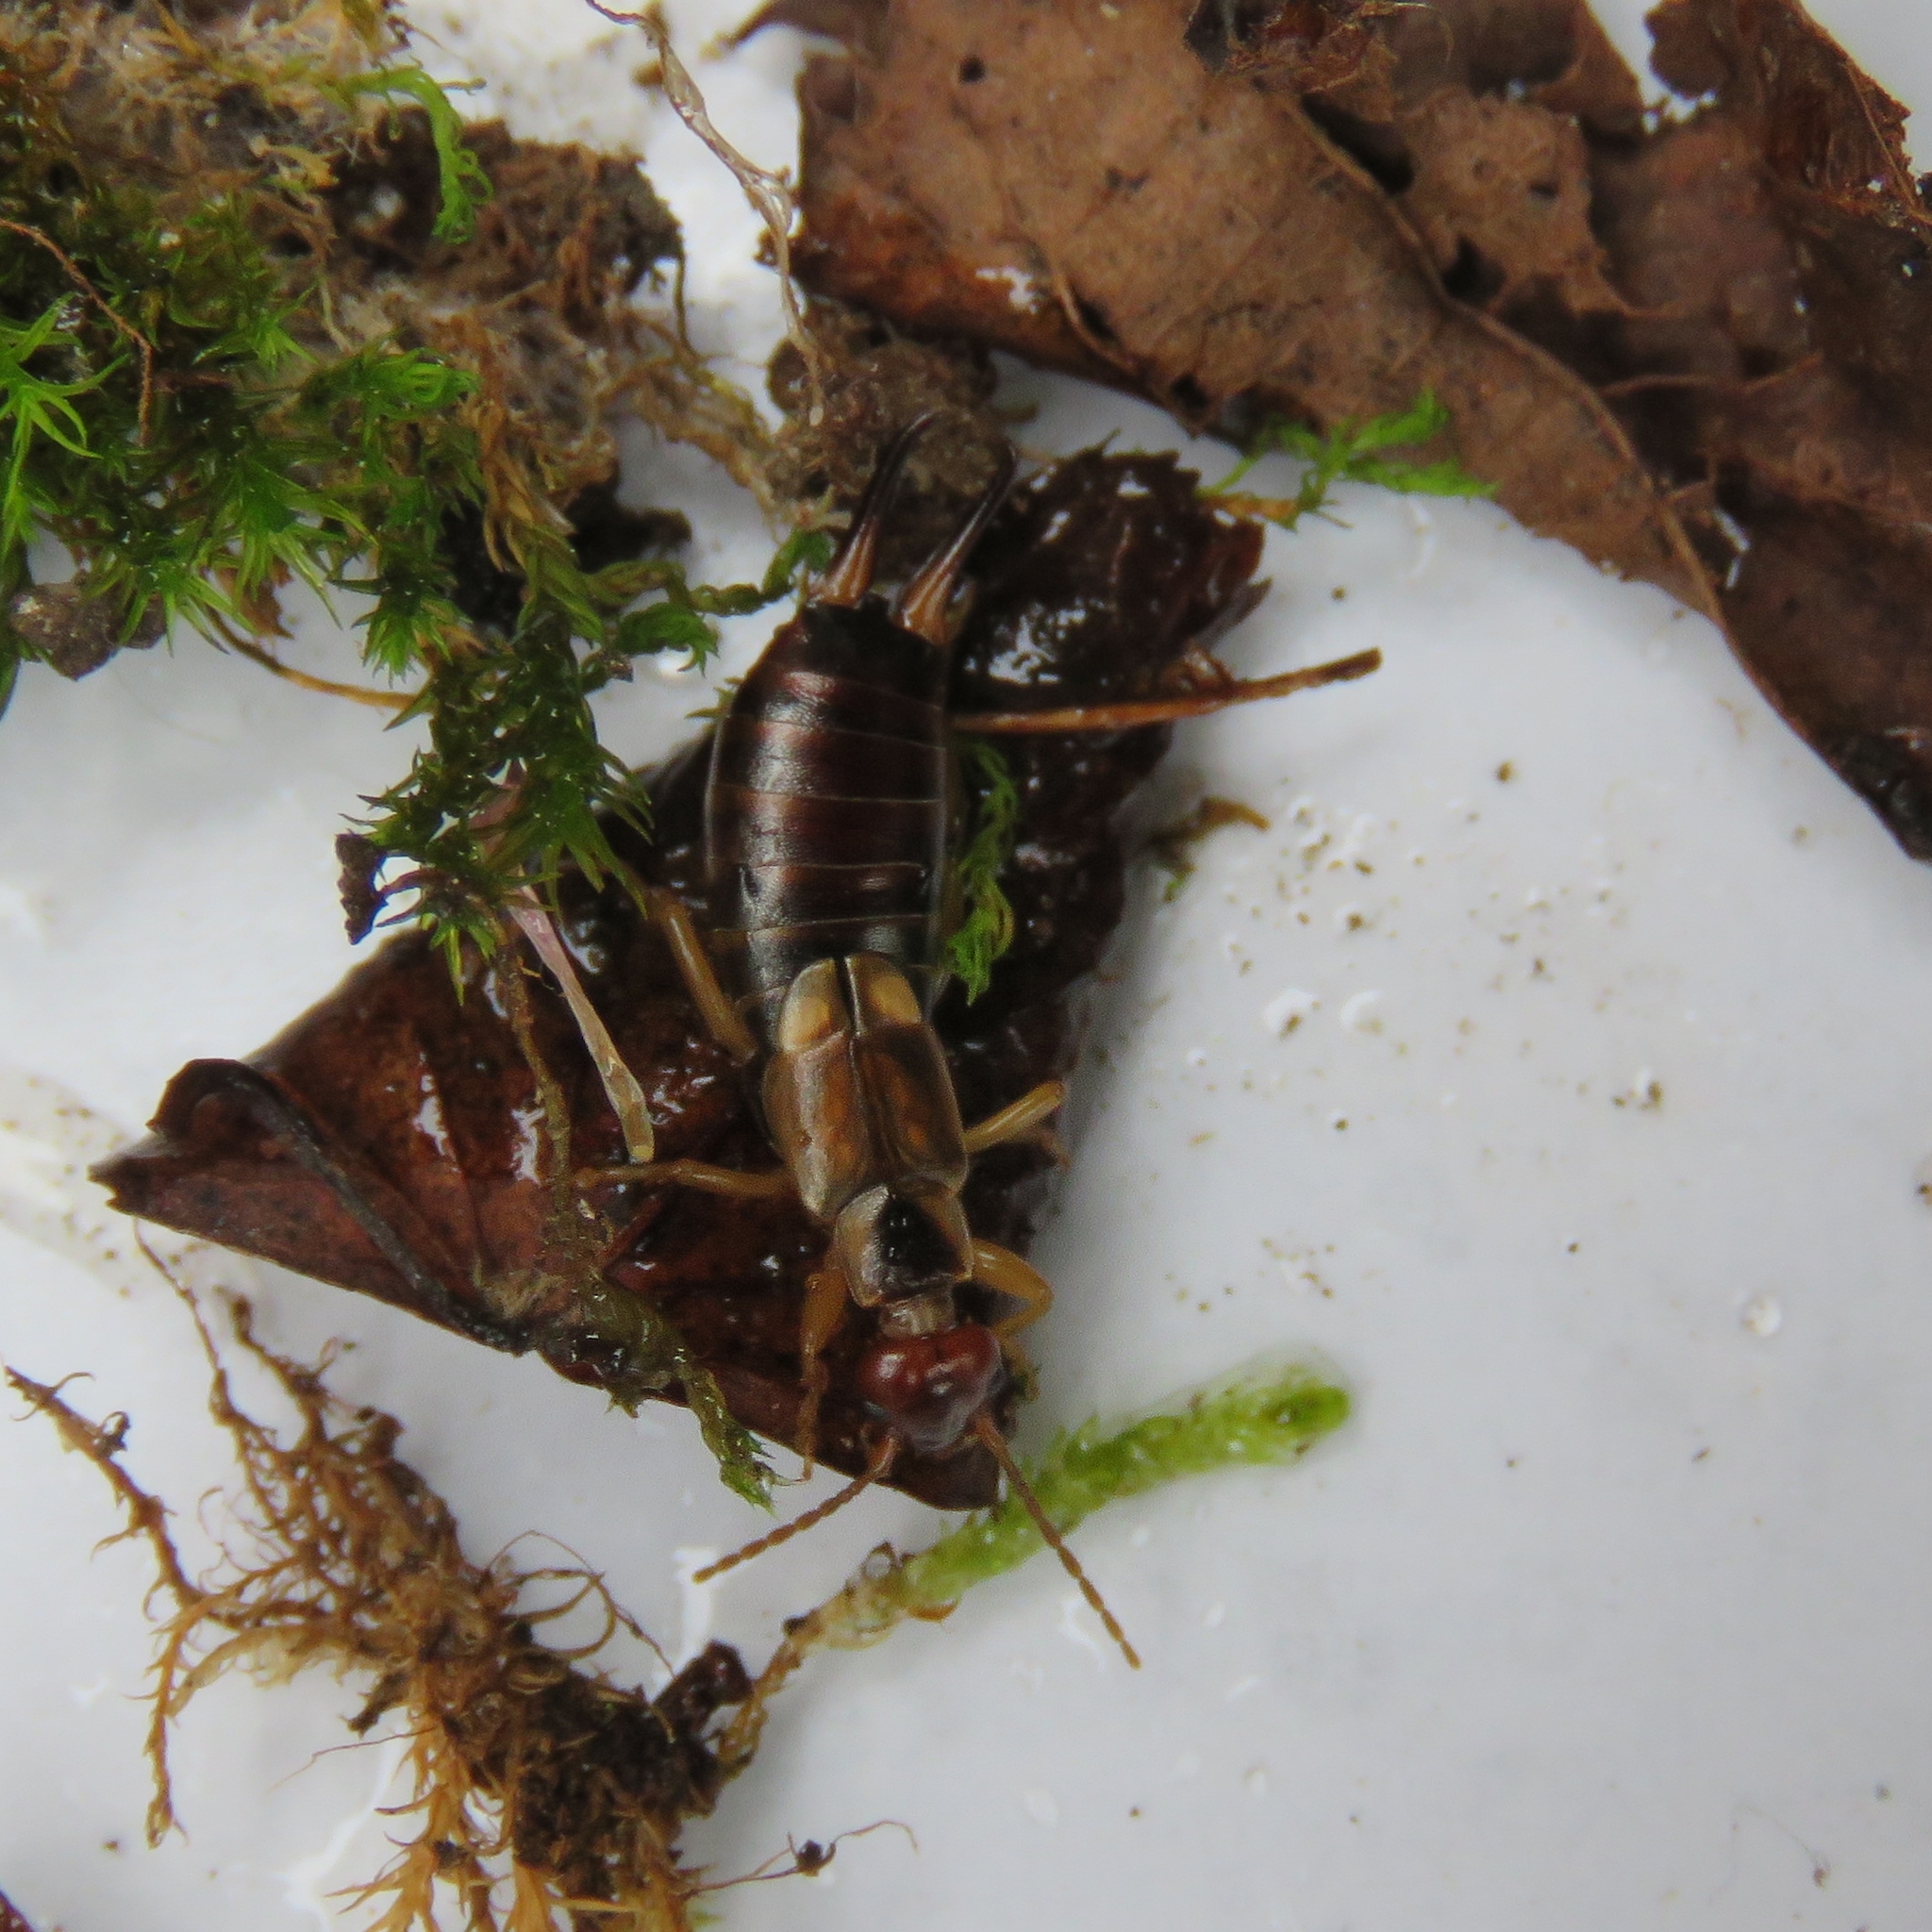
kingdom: Animalia
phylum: Arthropoda
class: Insecta
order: Dermaptera
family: Forficulidae
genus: Forficula
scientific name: Forficula
